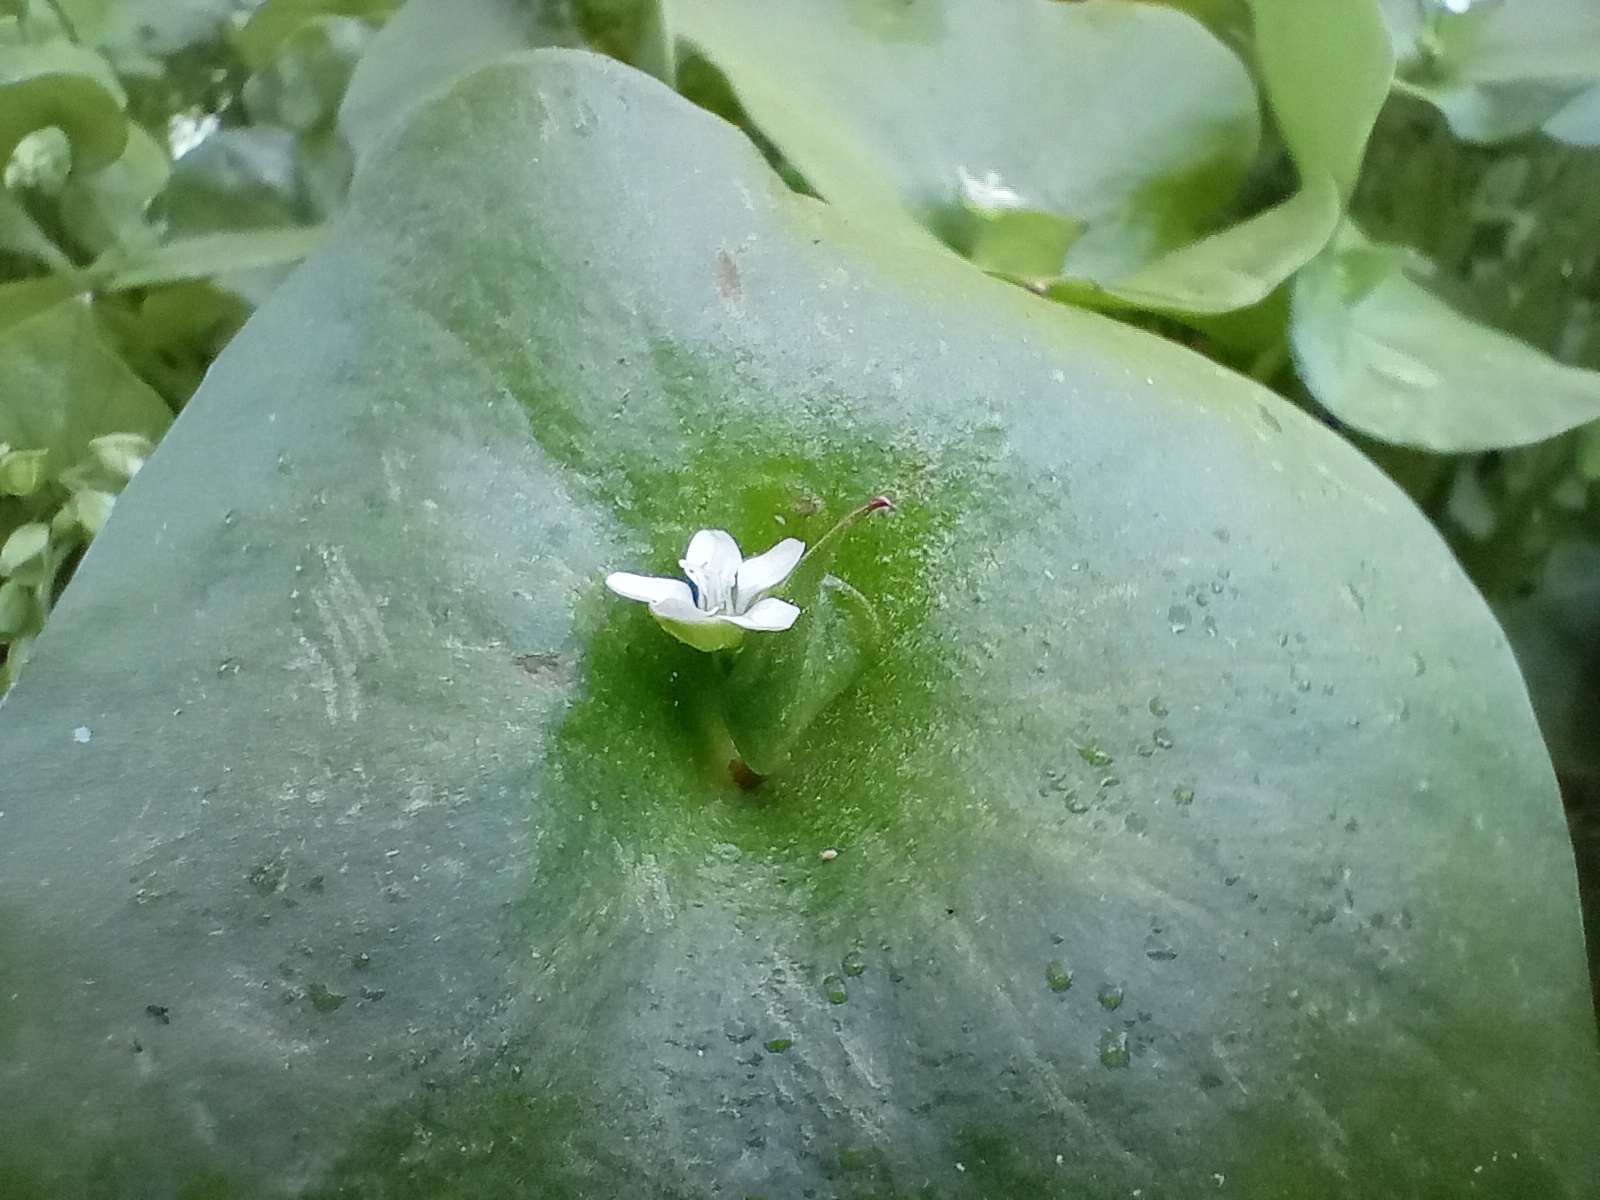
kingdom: Plantae
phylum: Tracheophyta
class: Magnoliopsida
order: Caryophyllales
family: Montiaceae
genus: Claytonia
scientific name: Claytonia perfoliata
